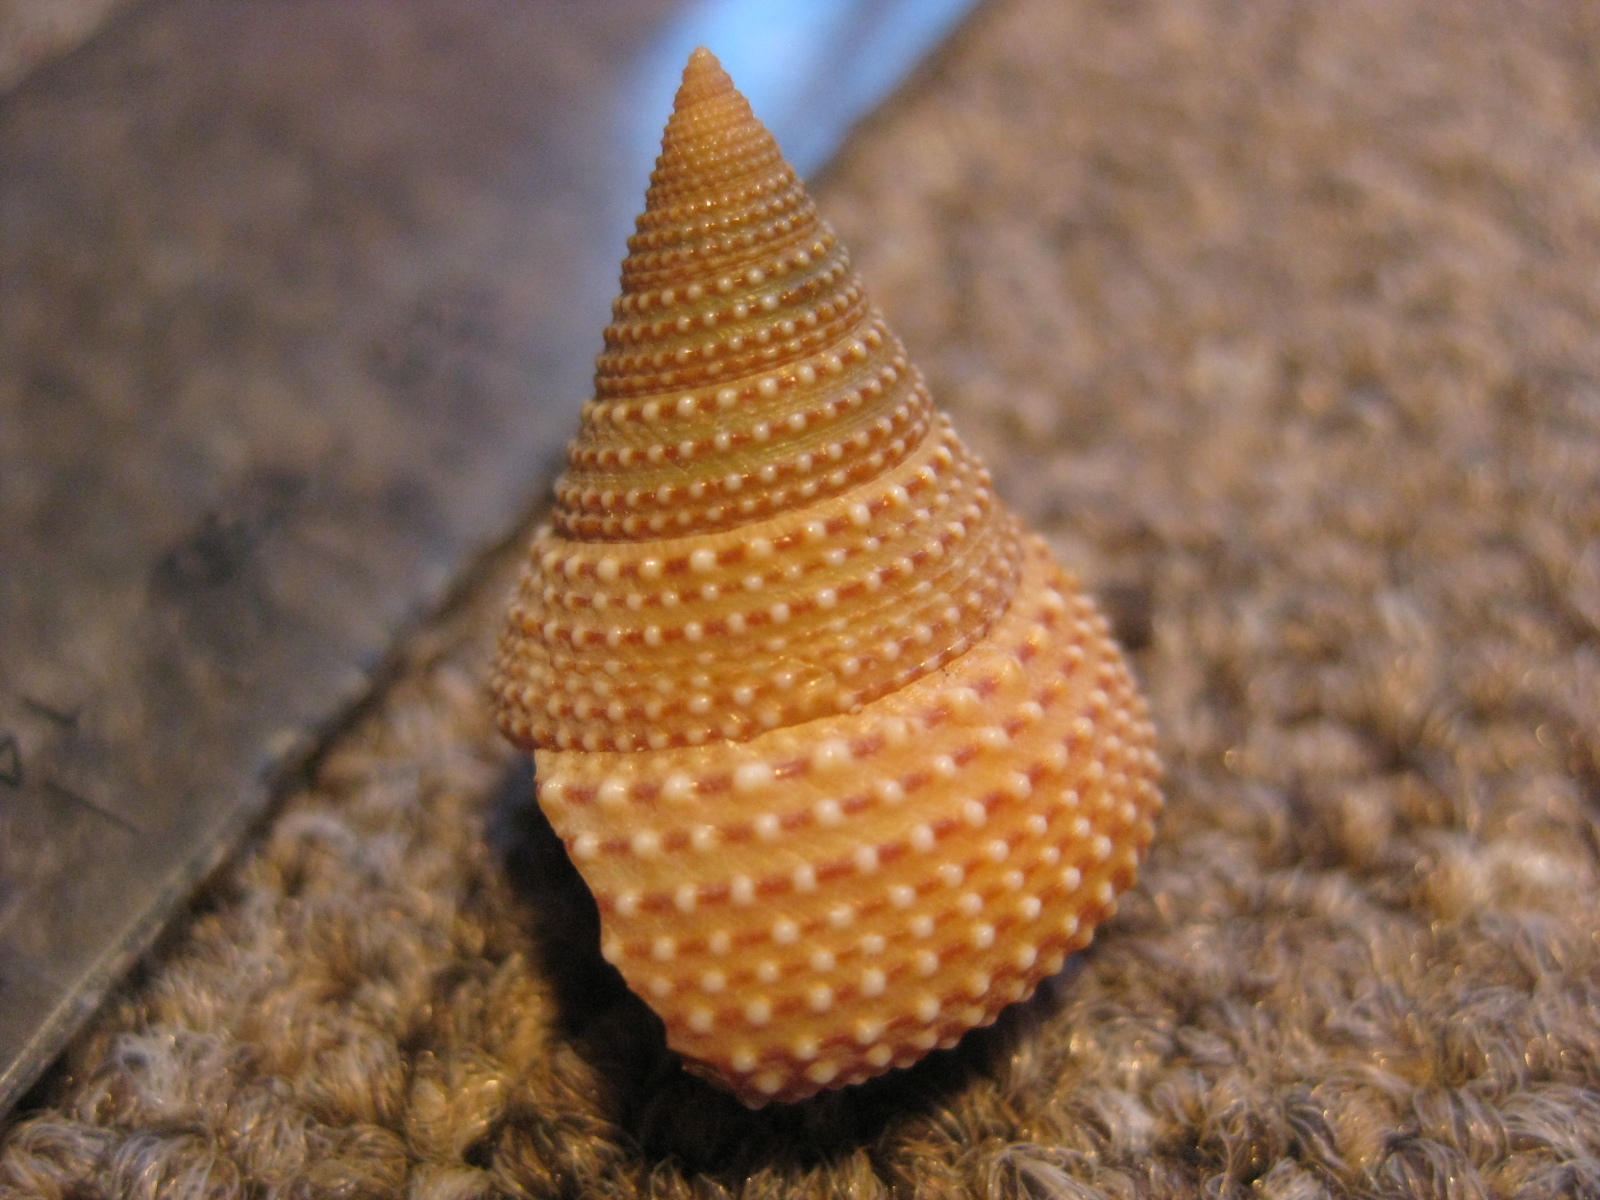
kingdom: Animalia
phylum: Mollusca
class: Gastropoda
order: Trochida
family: Calliostomatidae
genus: Maurea
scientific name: Maurea osbornei
